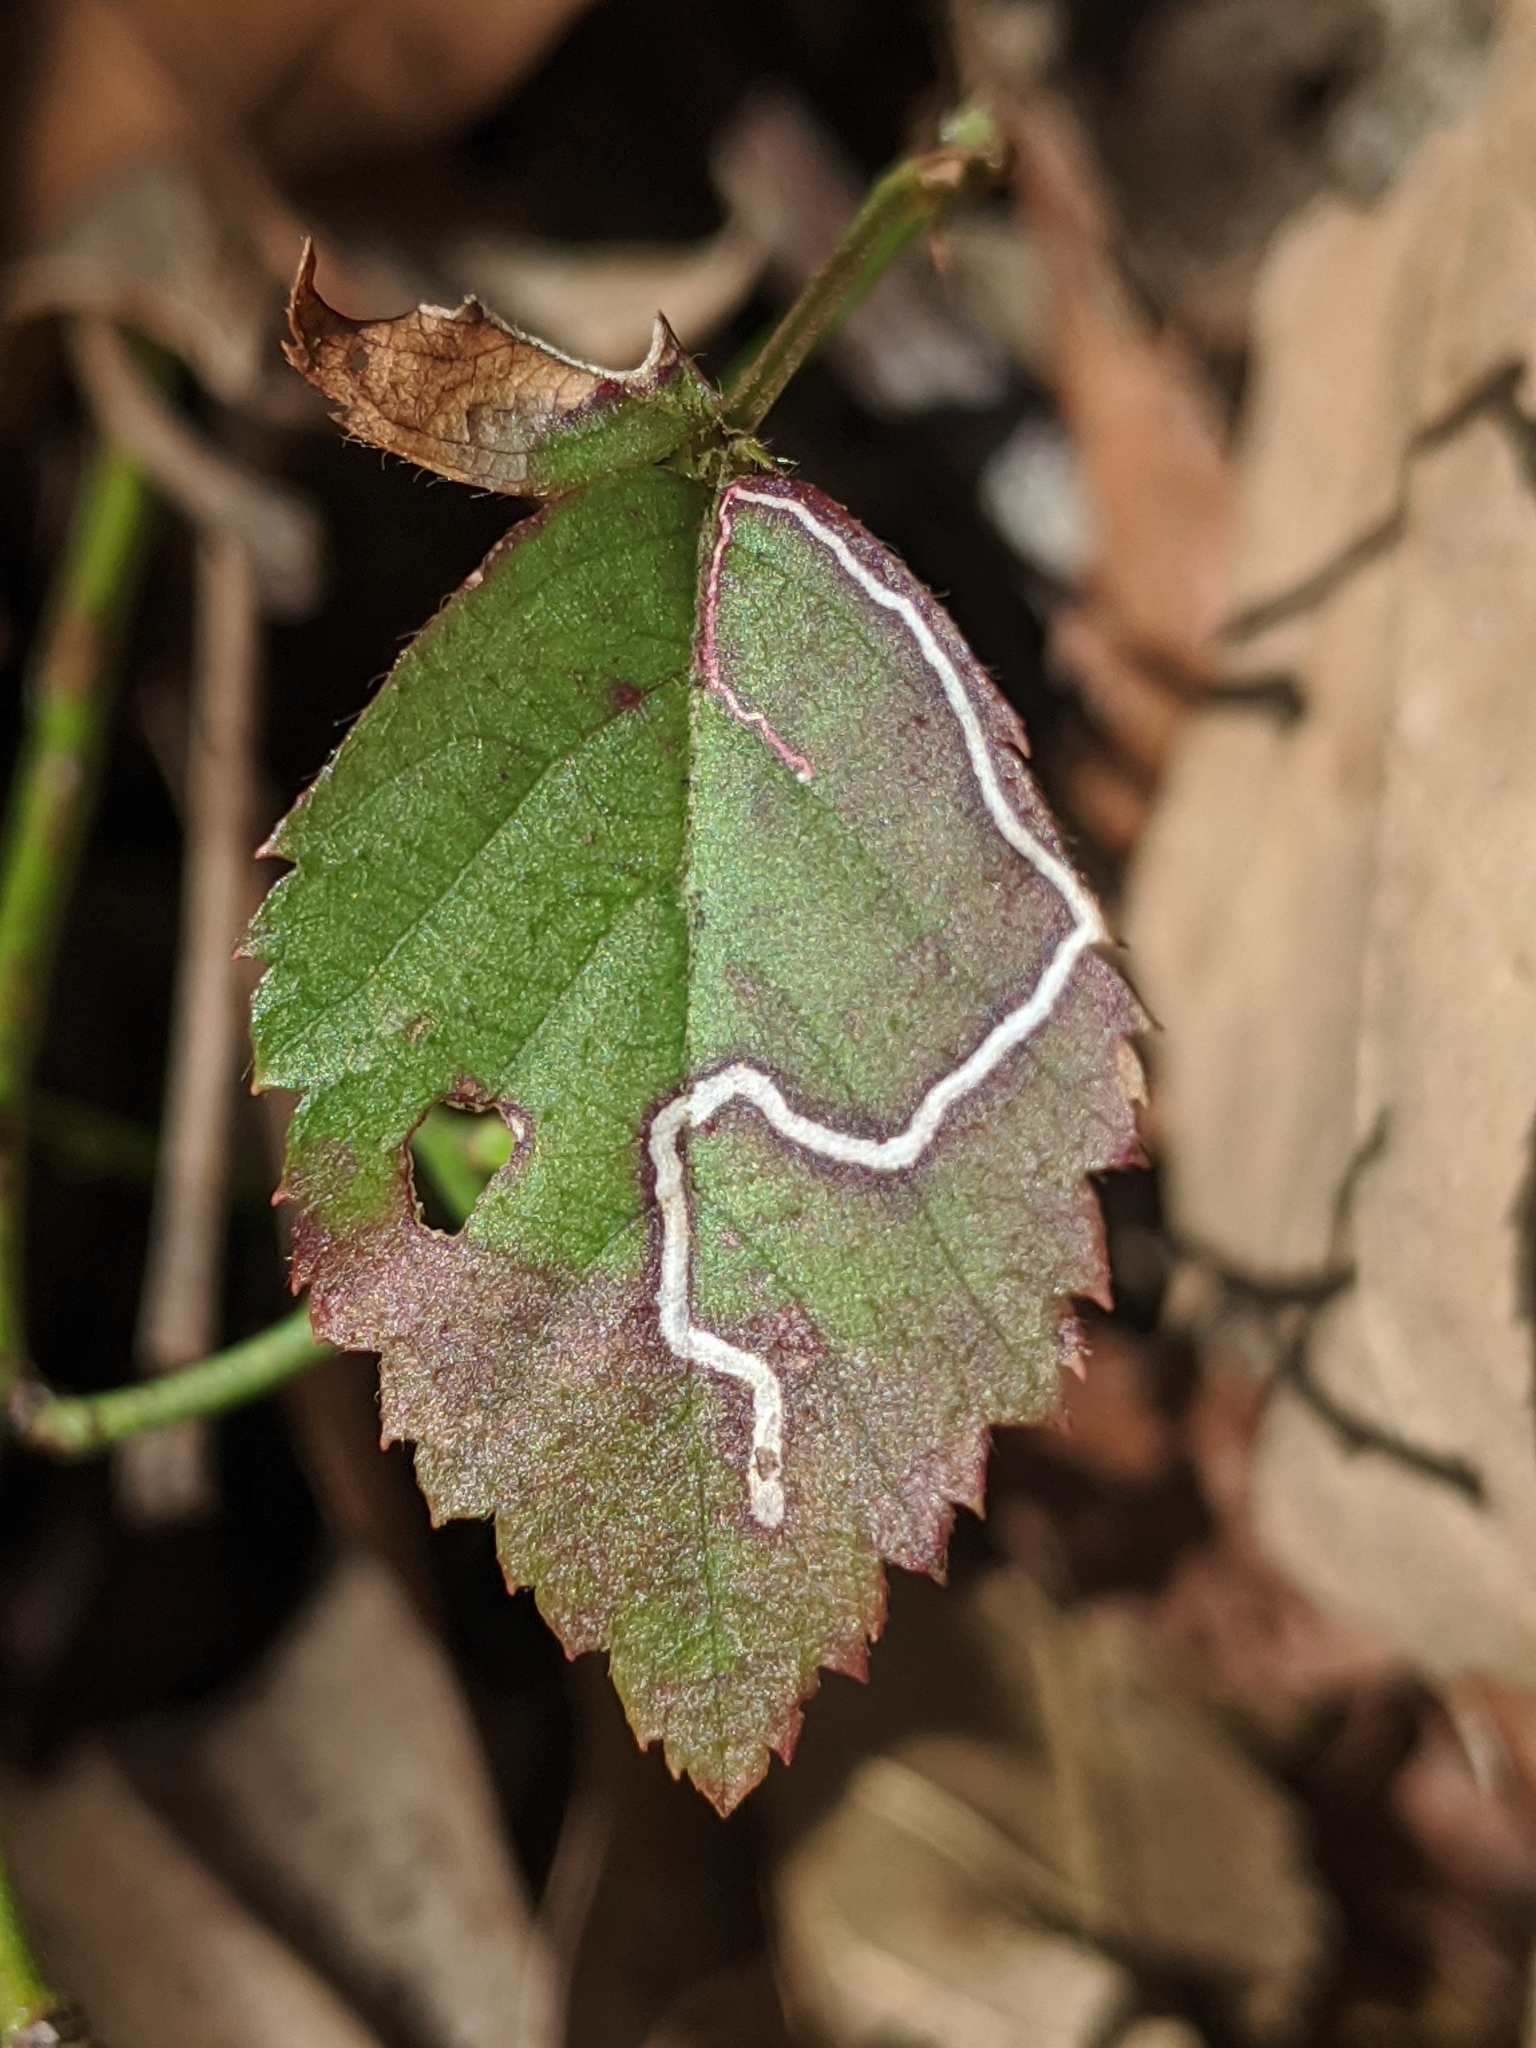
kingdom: Animalia
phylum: Arthropoda
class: Insecta
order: Lepidoptera
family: Nepticulidae
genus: Stigmella
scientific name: Stigmella villosella
